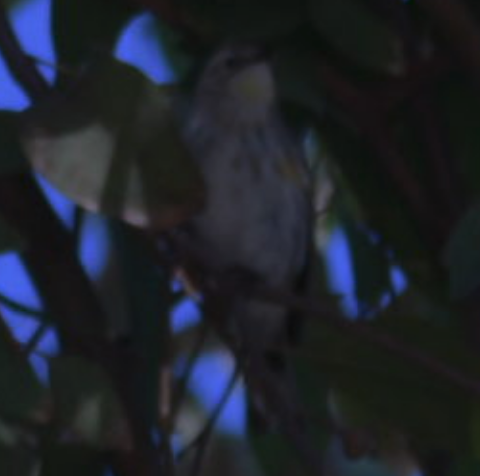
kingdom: Animalia
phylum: Chordata
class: Aves
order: Passeriformes
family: Parulidae
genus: Setophaga
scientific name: Setophaga coronata
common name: Myrtle warbler
